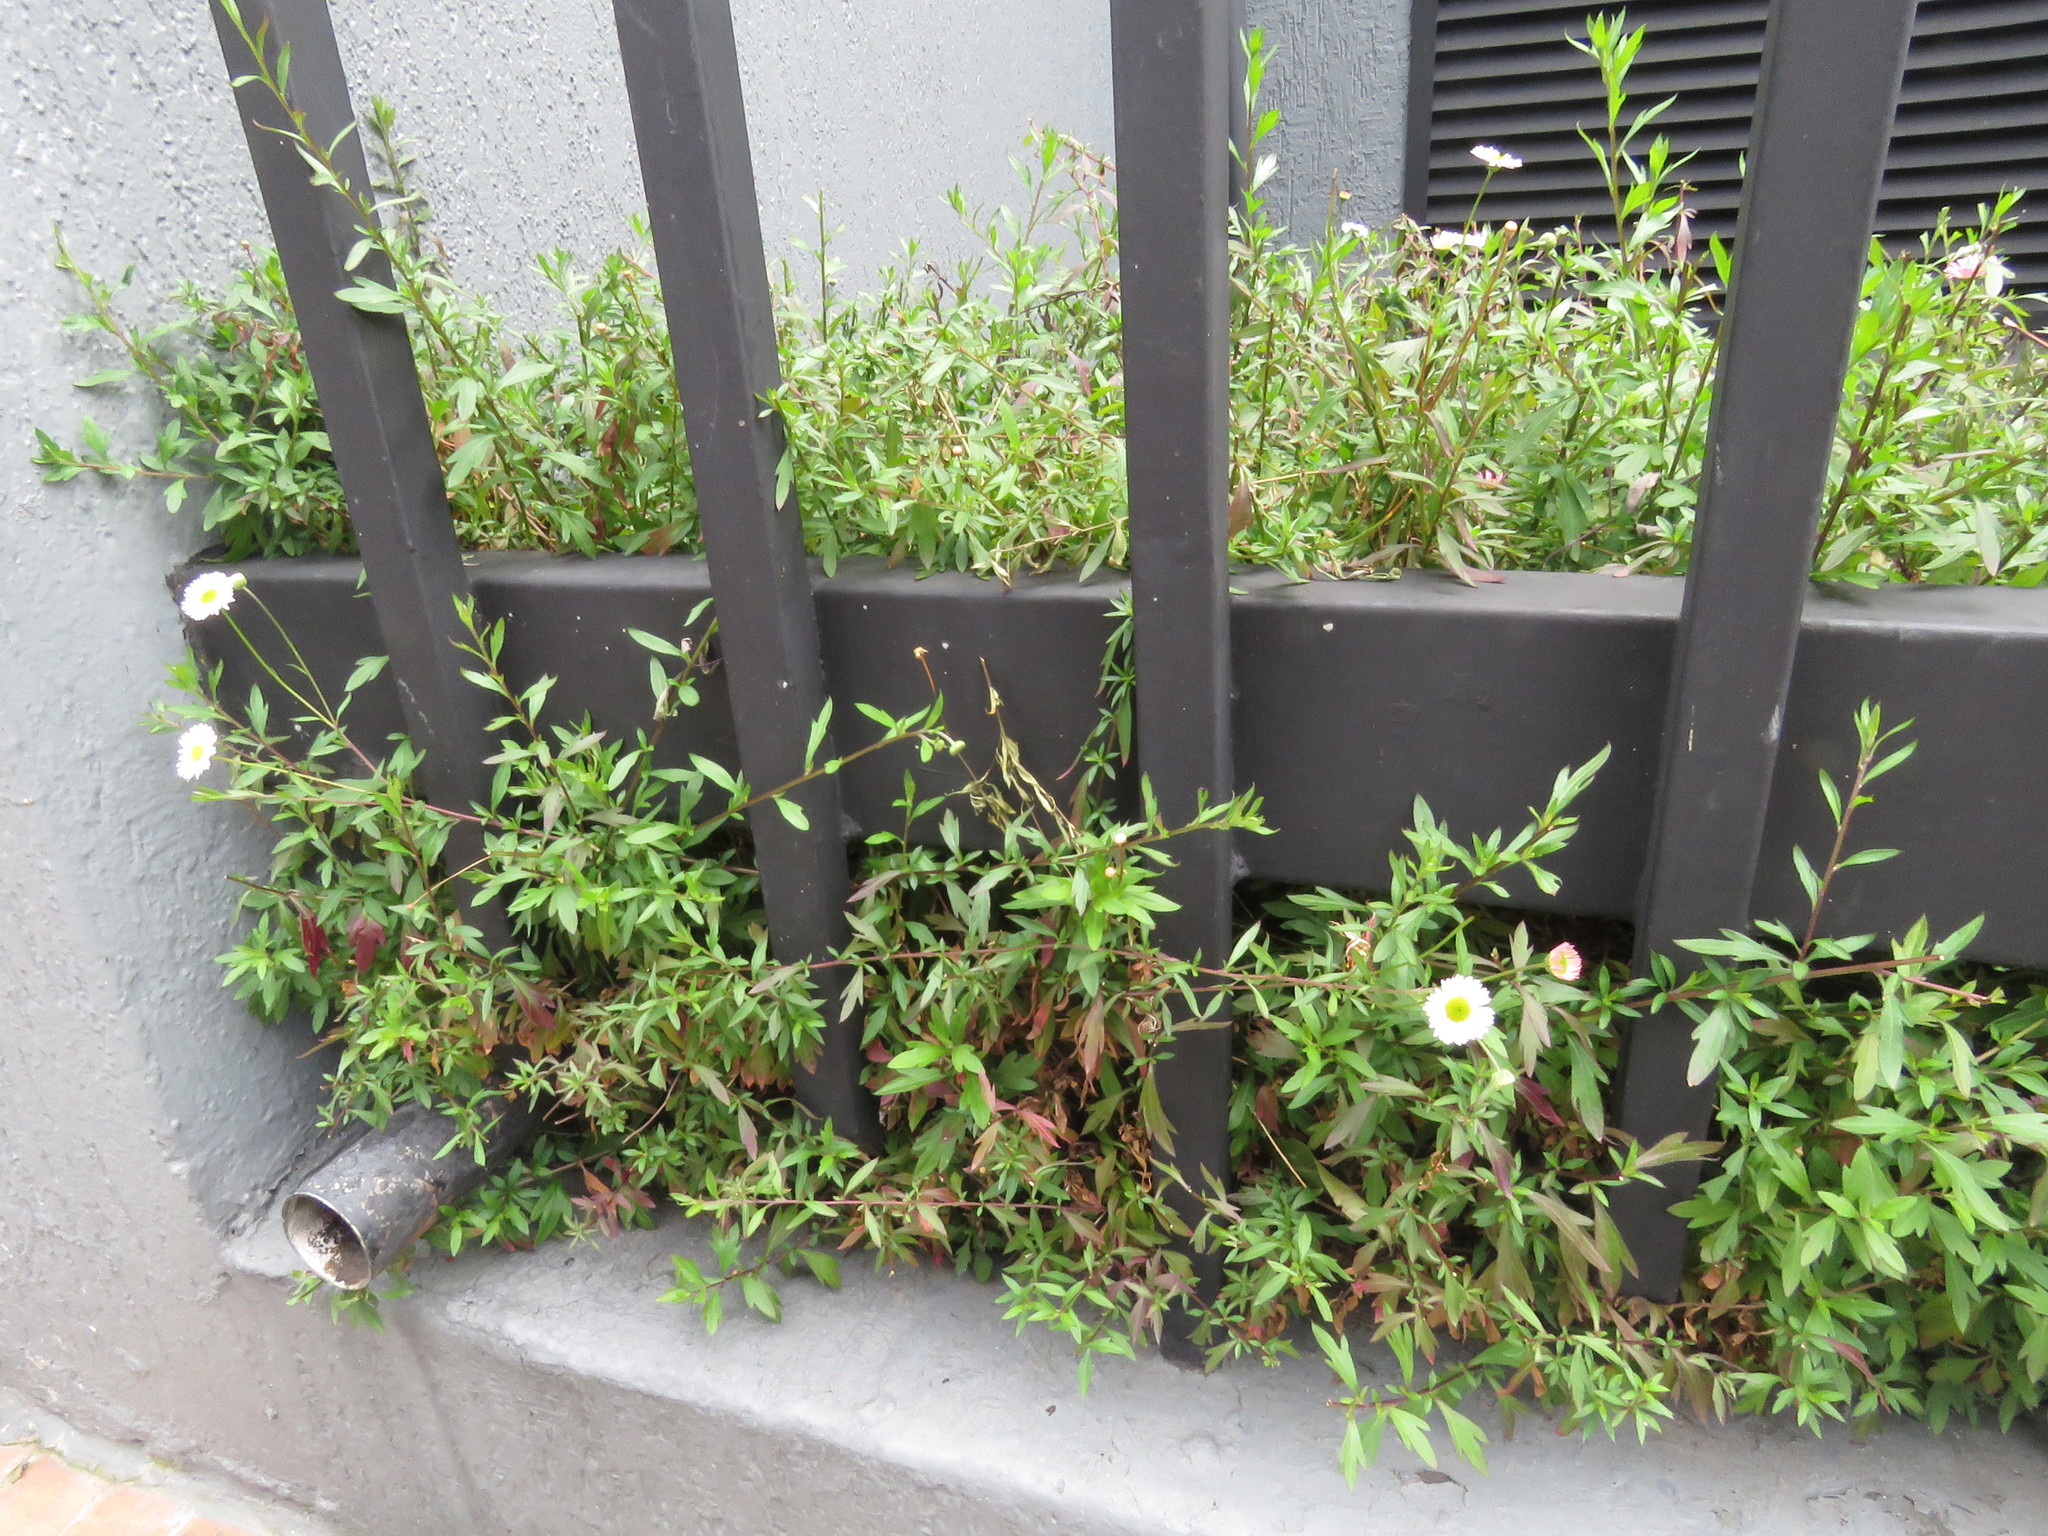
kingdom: Plantae
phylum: Tracheophyta
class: Magnoliopsida
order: Asterales
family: Asteraceae
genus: Erigeron
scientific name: Erigeron karvinskianus
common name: Mexican fleabane
